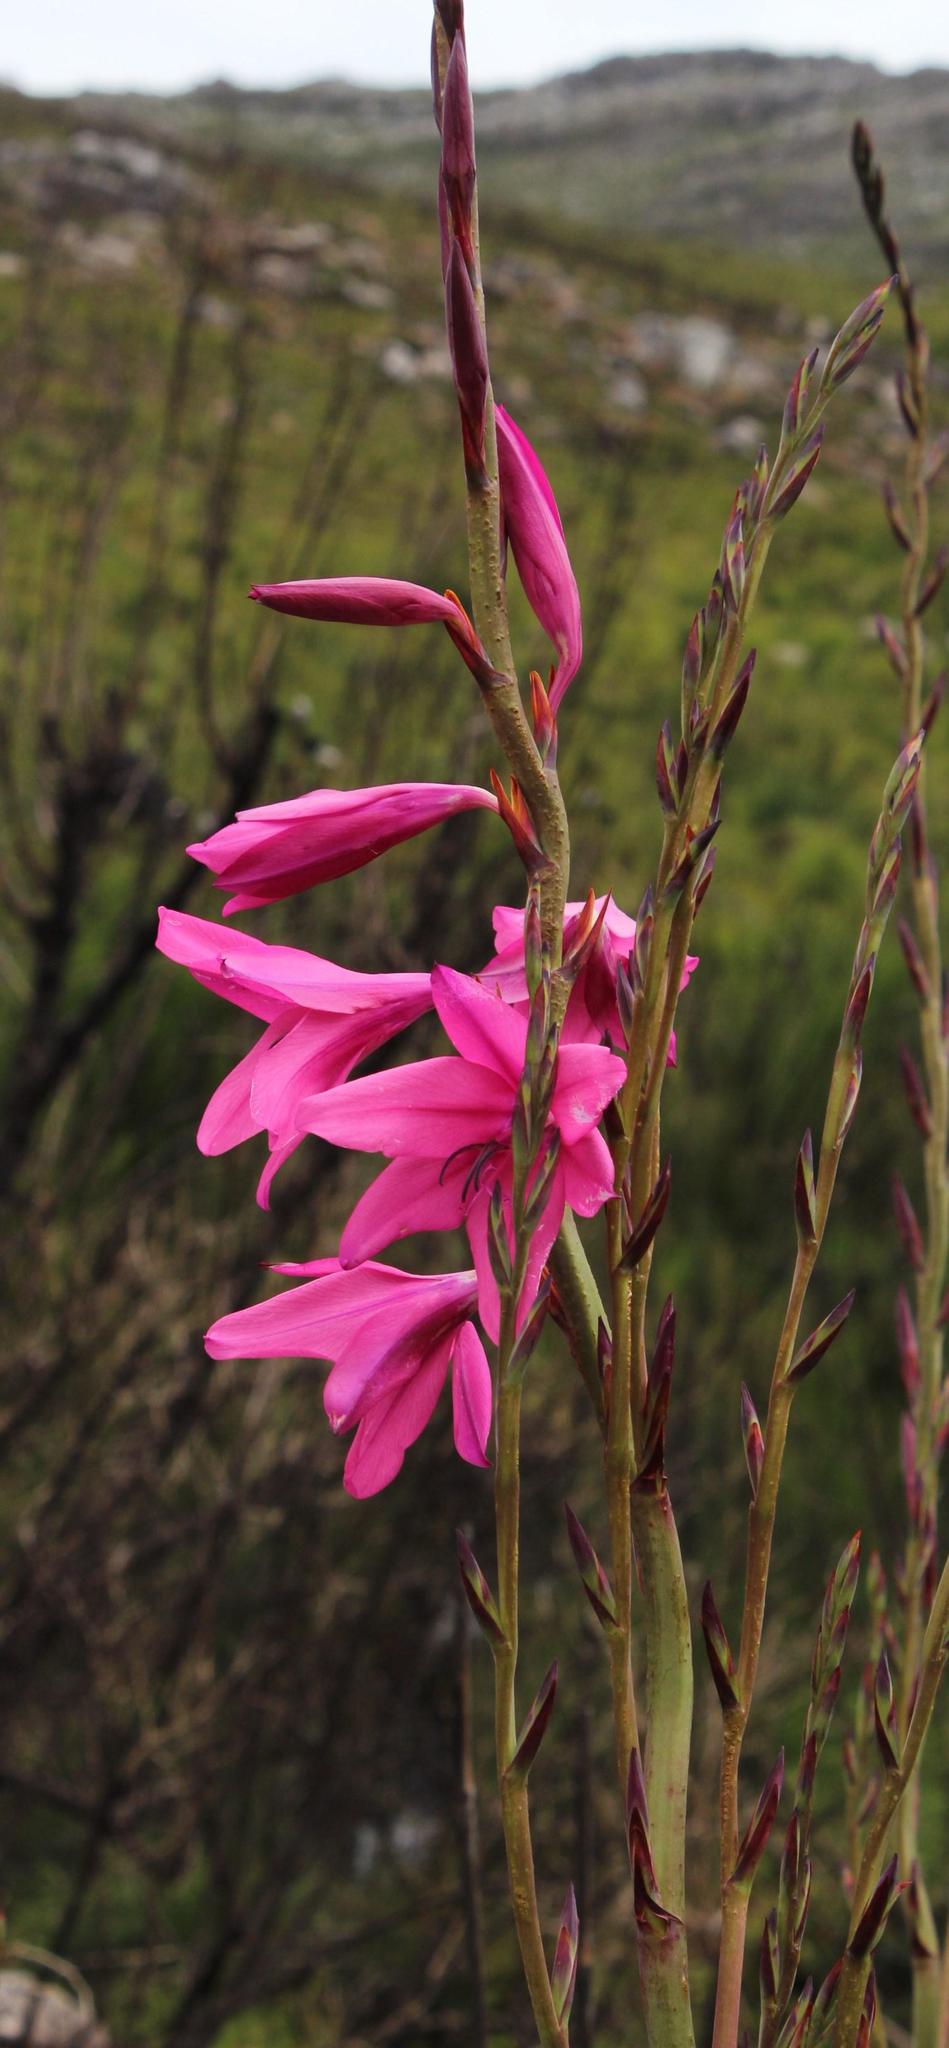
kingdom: Plantae
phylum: Tracheophyta
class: Liliopsida
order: Asparagales
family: Iridaceae
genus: Watsonia
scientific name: Watsonia borbonica
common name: Bugle-lily
